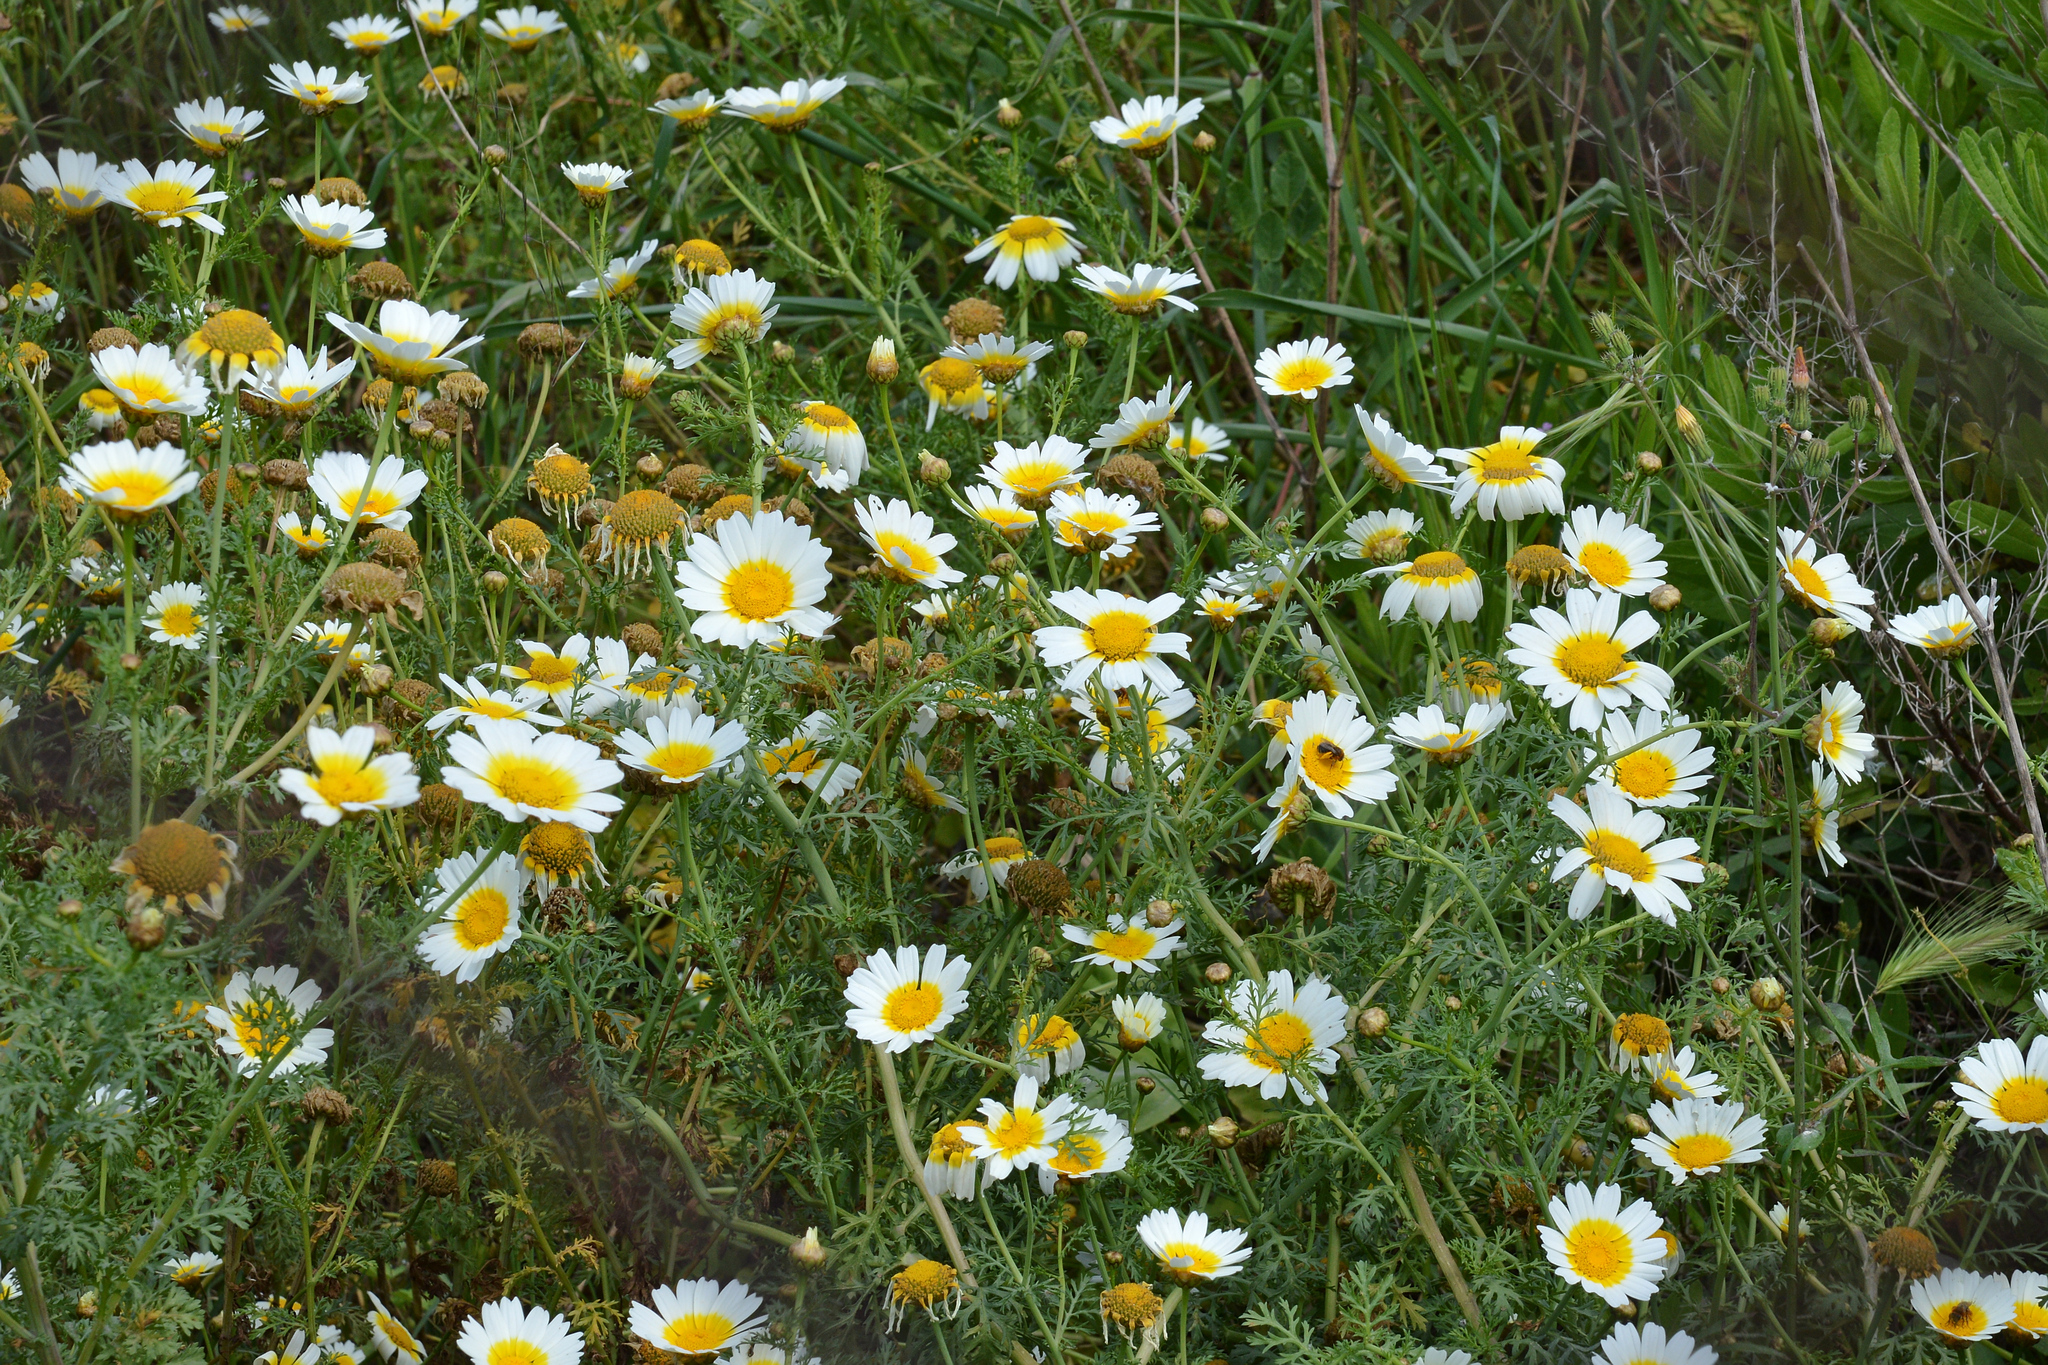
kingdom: Plantae
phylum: Tracheophyta
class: Magnoliopsida
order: Asterales
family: Asteraceae
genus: Glebionis
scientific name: Glebionis coronaria
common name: Crowndaisy
